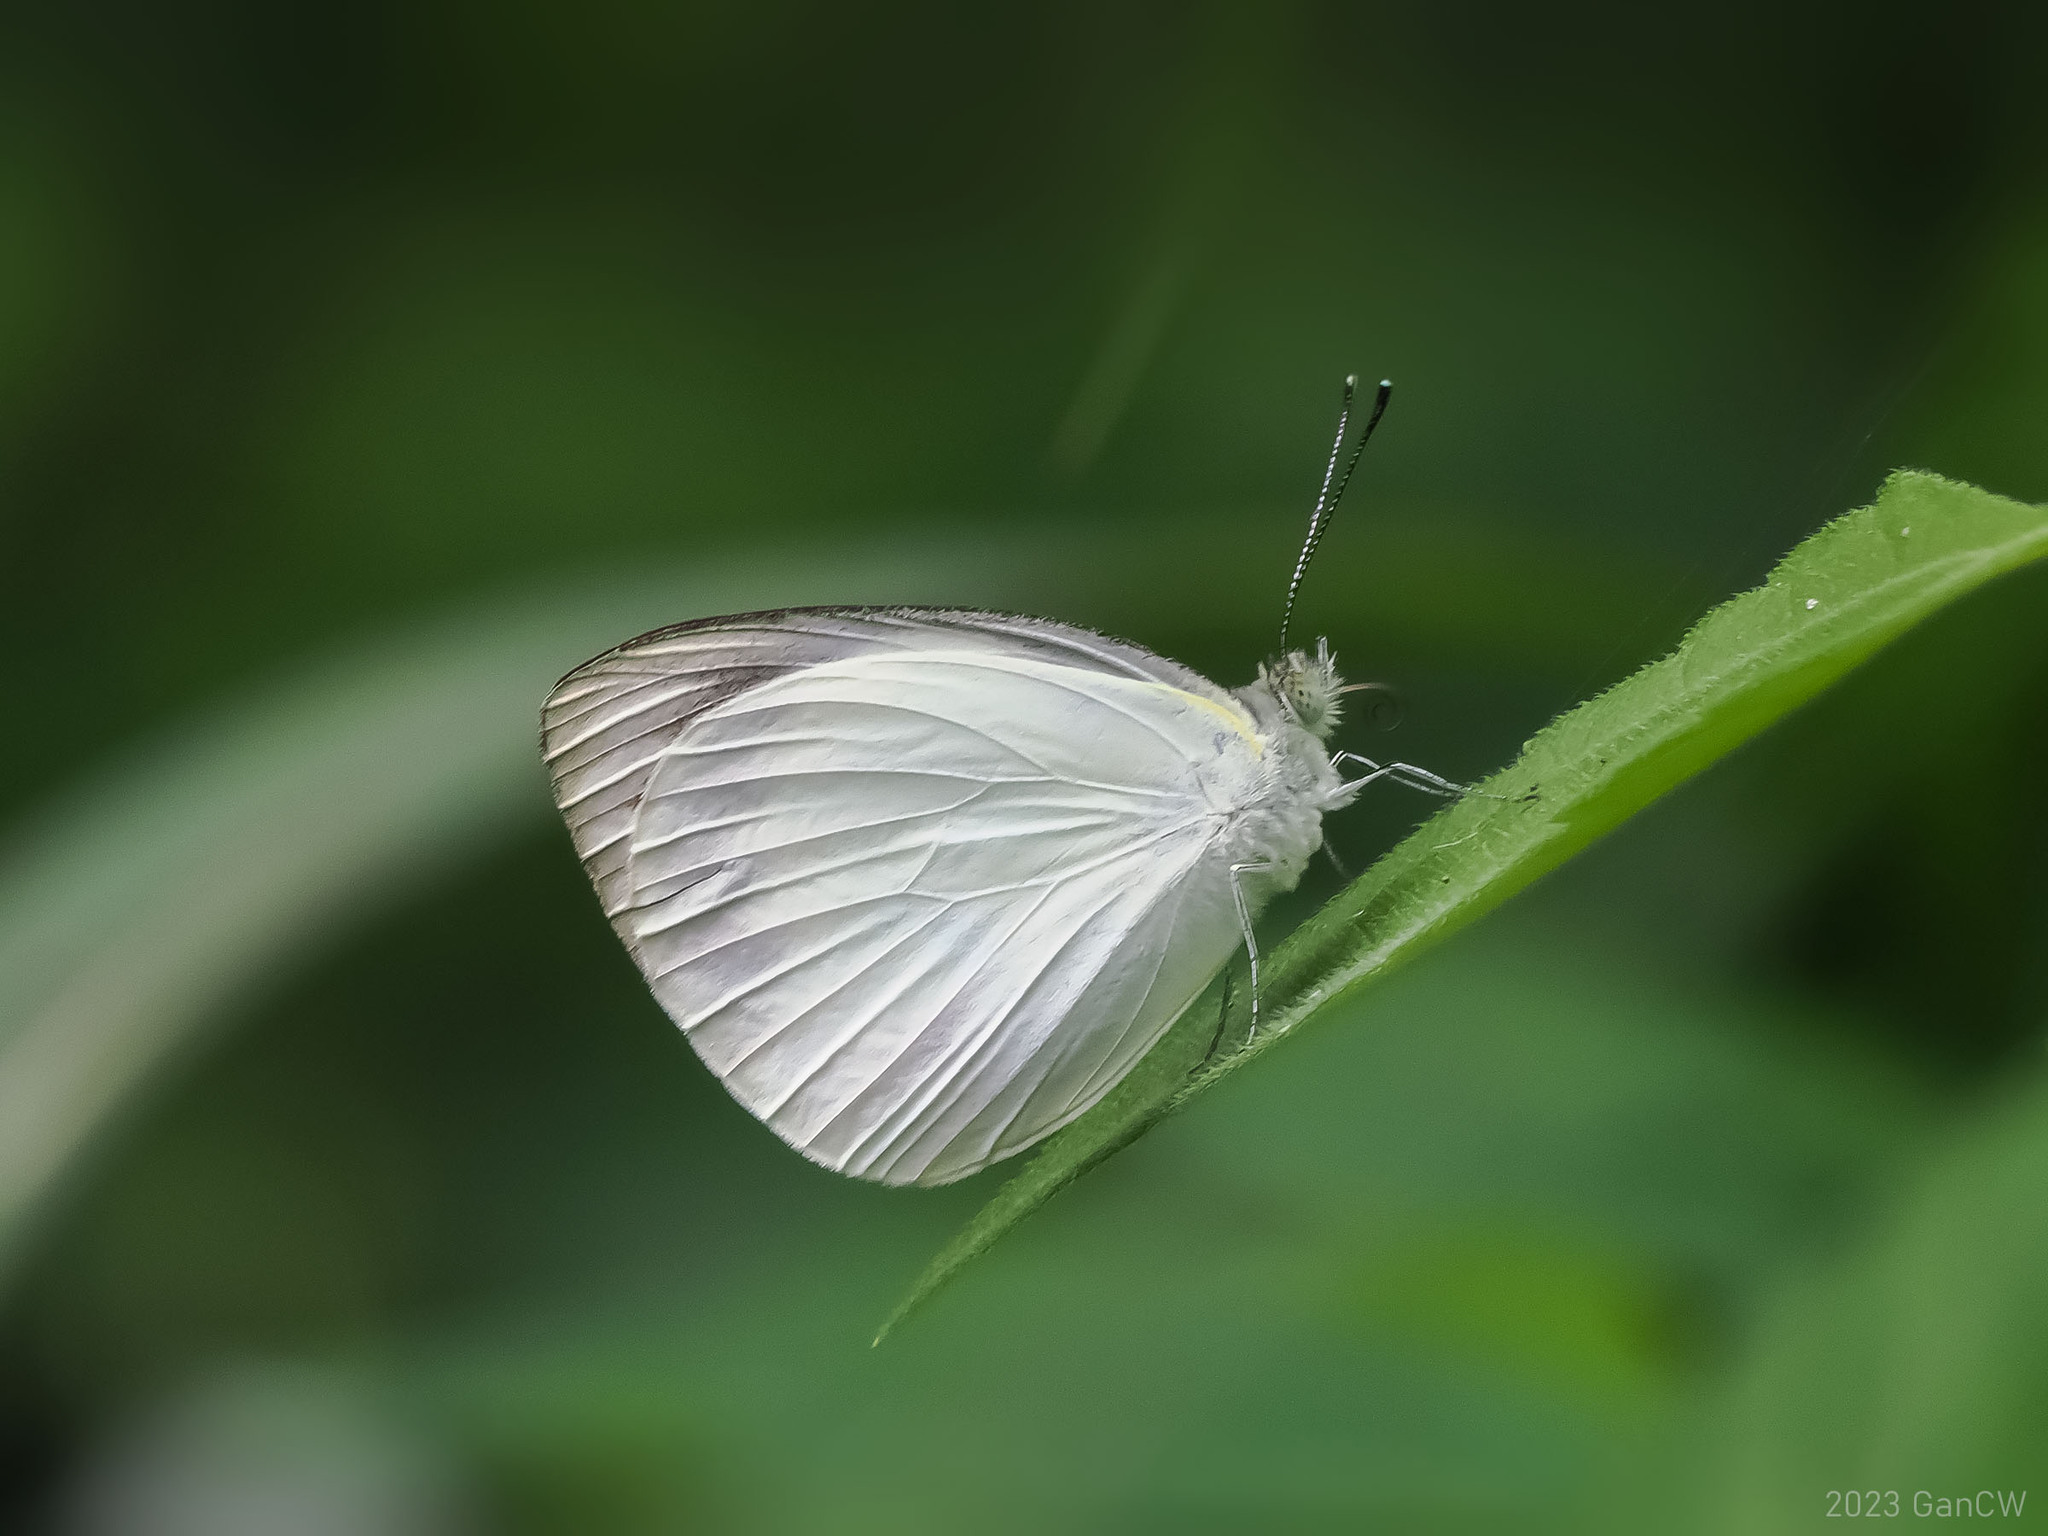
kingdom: Animalia
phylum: Arthropoda
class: Insecta
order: Lepidoptera
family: Pieridae
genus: Appias
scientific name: Appias aegis
